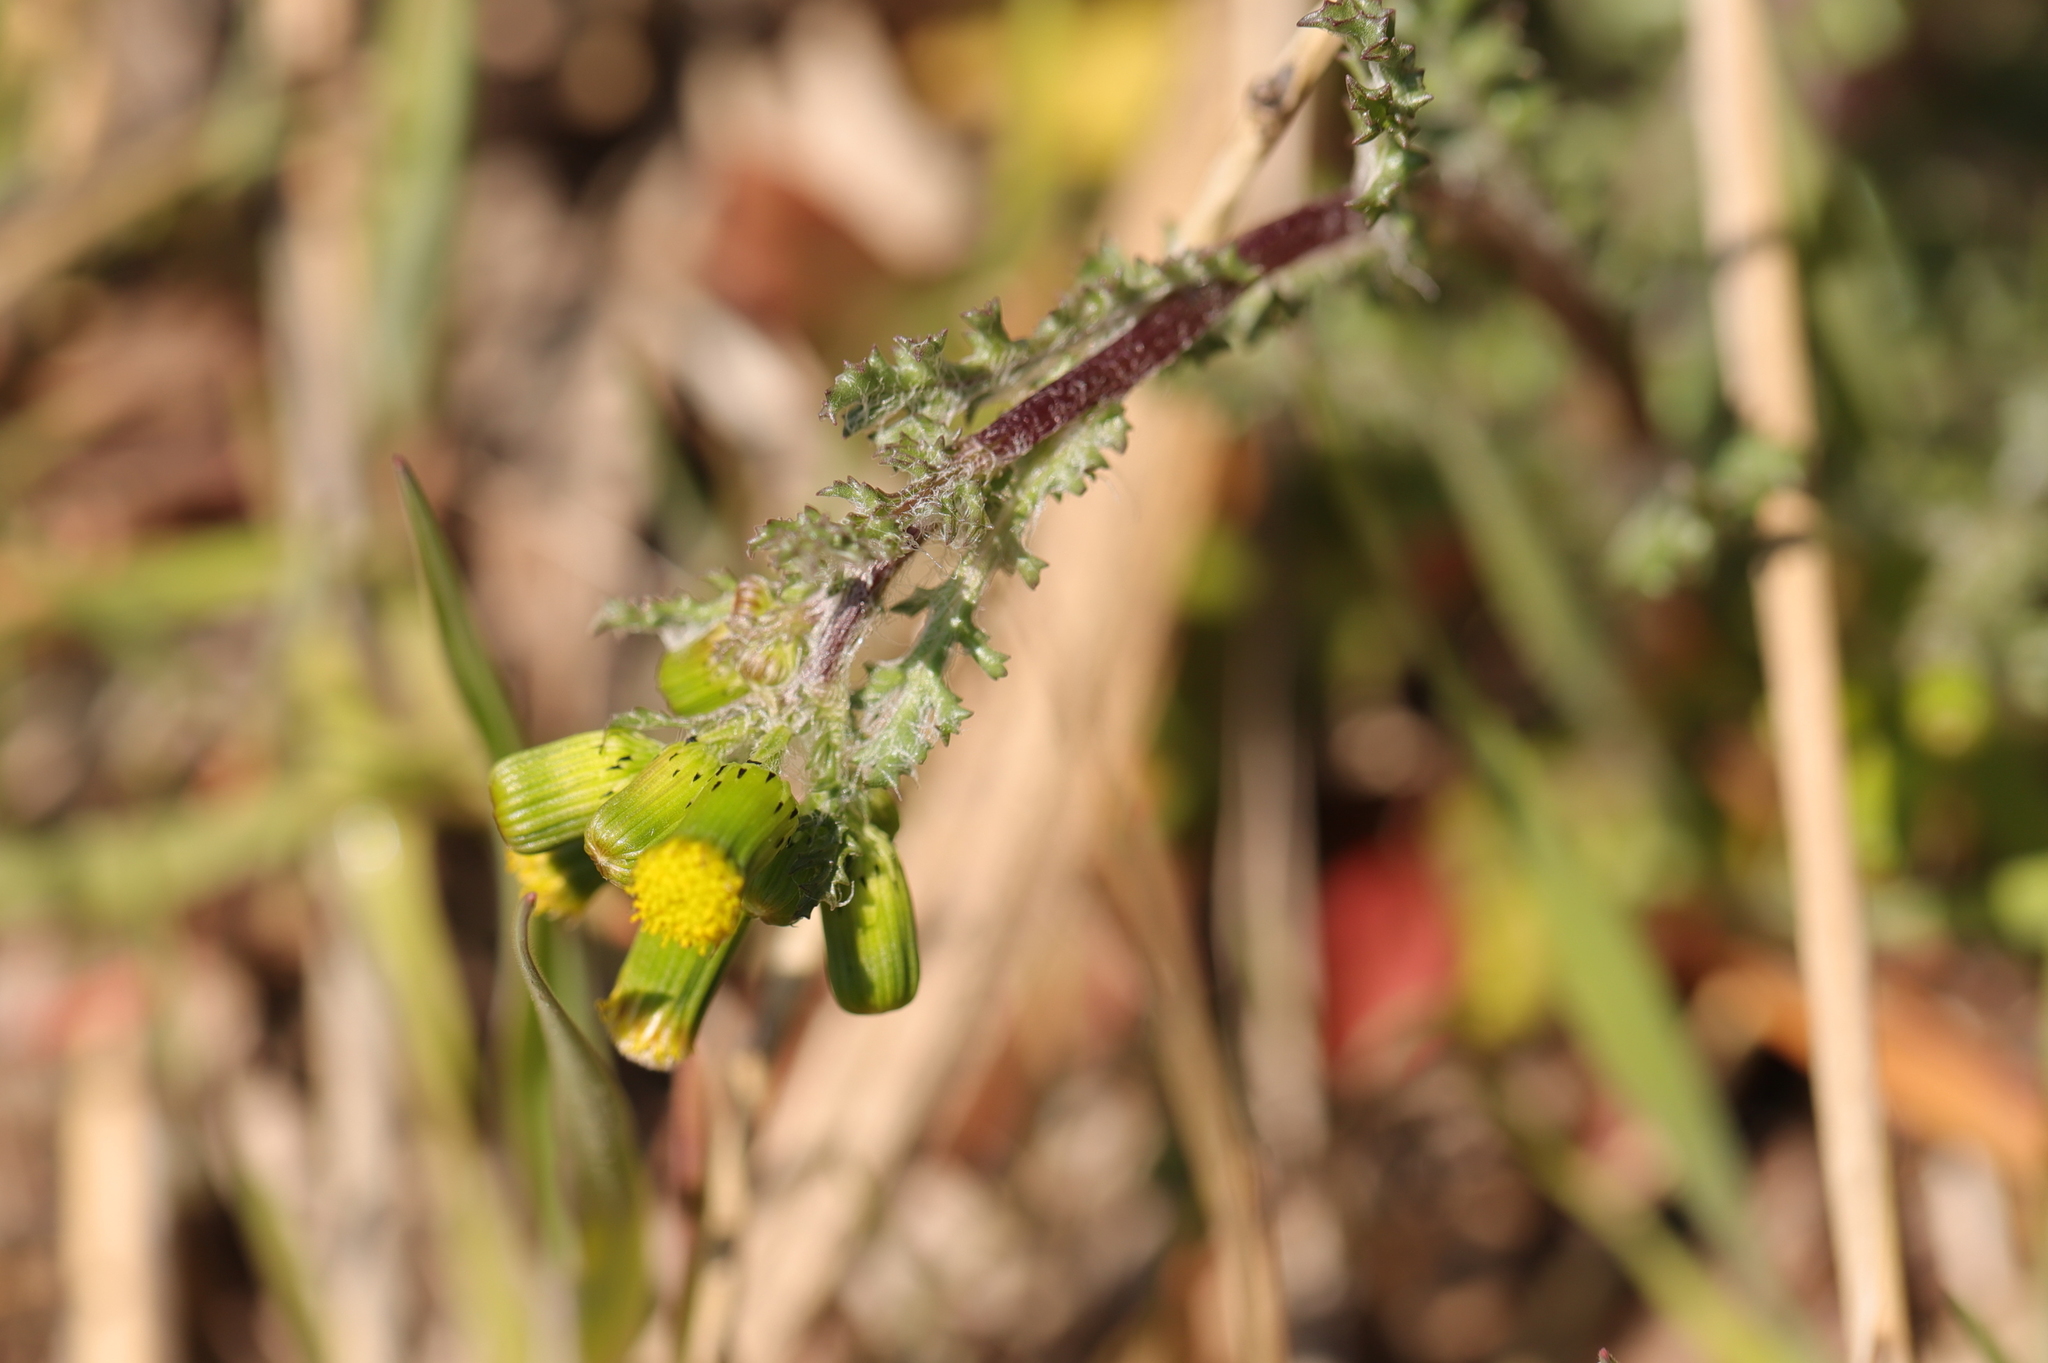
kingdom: Plantae
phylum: Tracheophyta
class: Magnoliopsida
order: Asterales
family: Asteraceae
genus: Senecio
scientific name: Senecio vulgaris
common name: Old-man-in-the-spring
